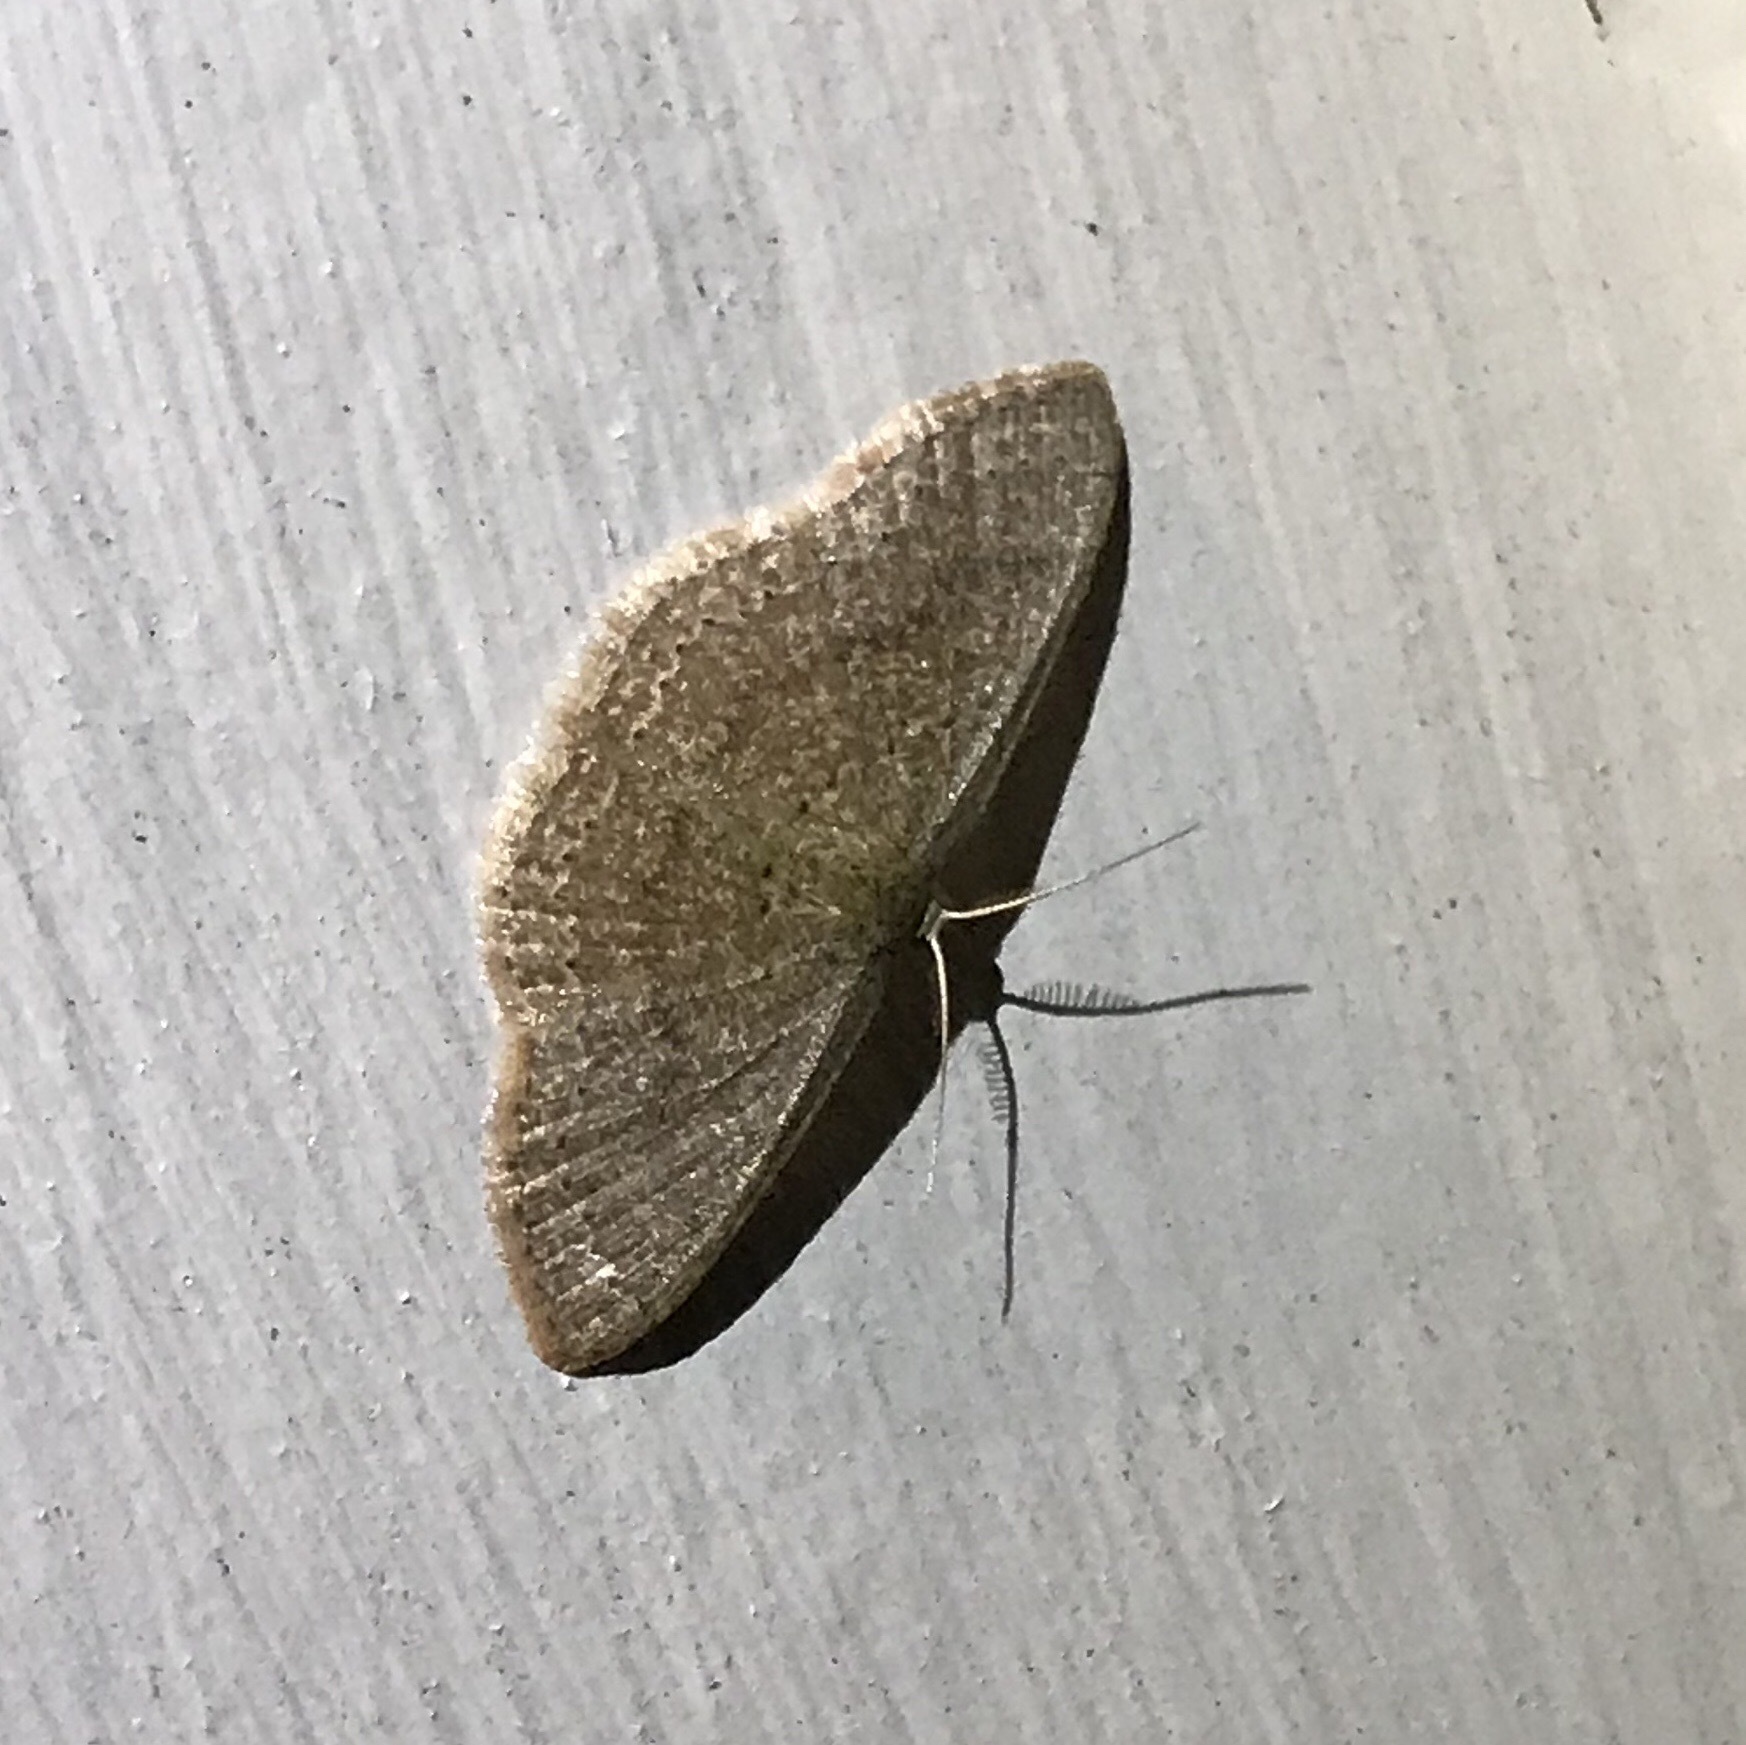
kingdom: Animalia
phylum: Arthropoda
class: Insecta
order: Lepidoptera
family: Geometridae
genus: Pleuroprucha
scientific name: Pleuroprucha insulsaria
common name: Common tan wave
